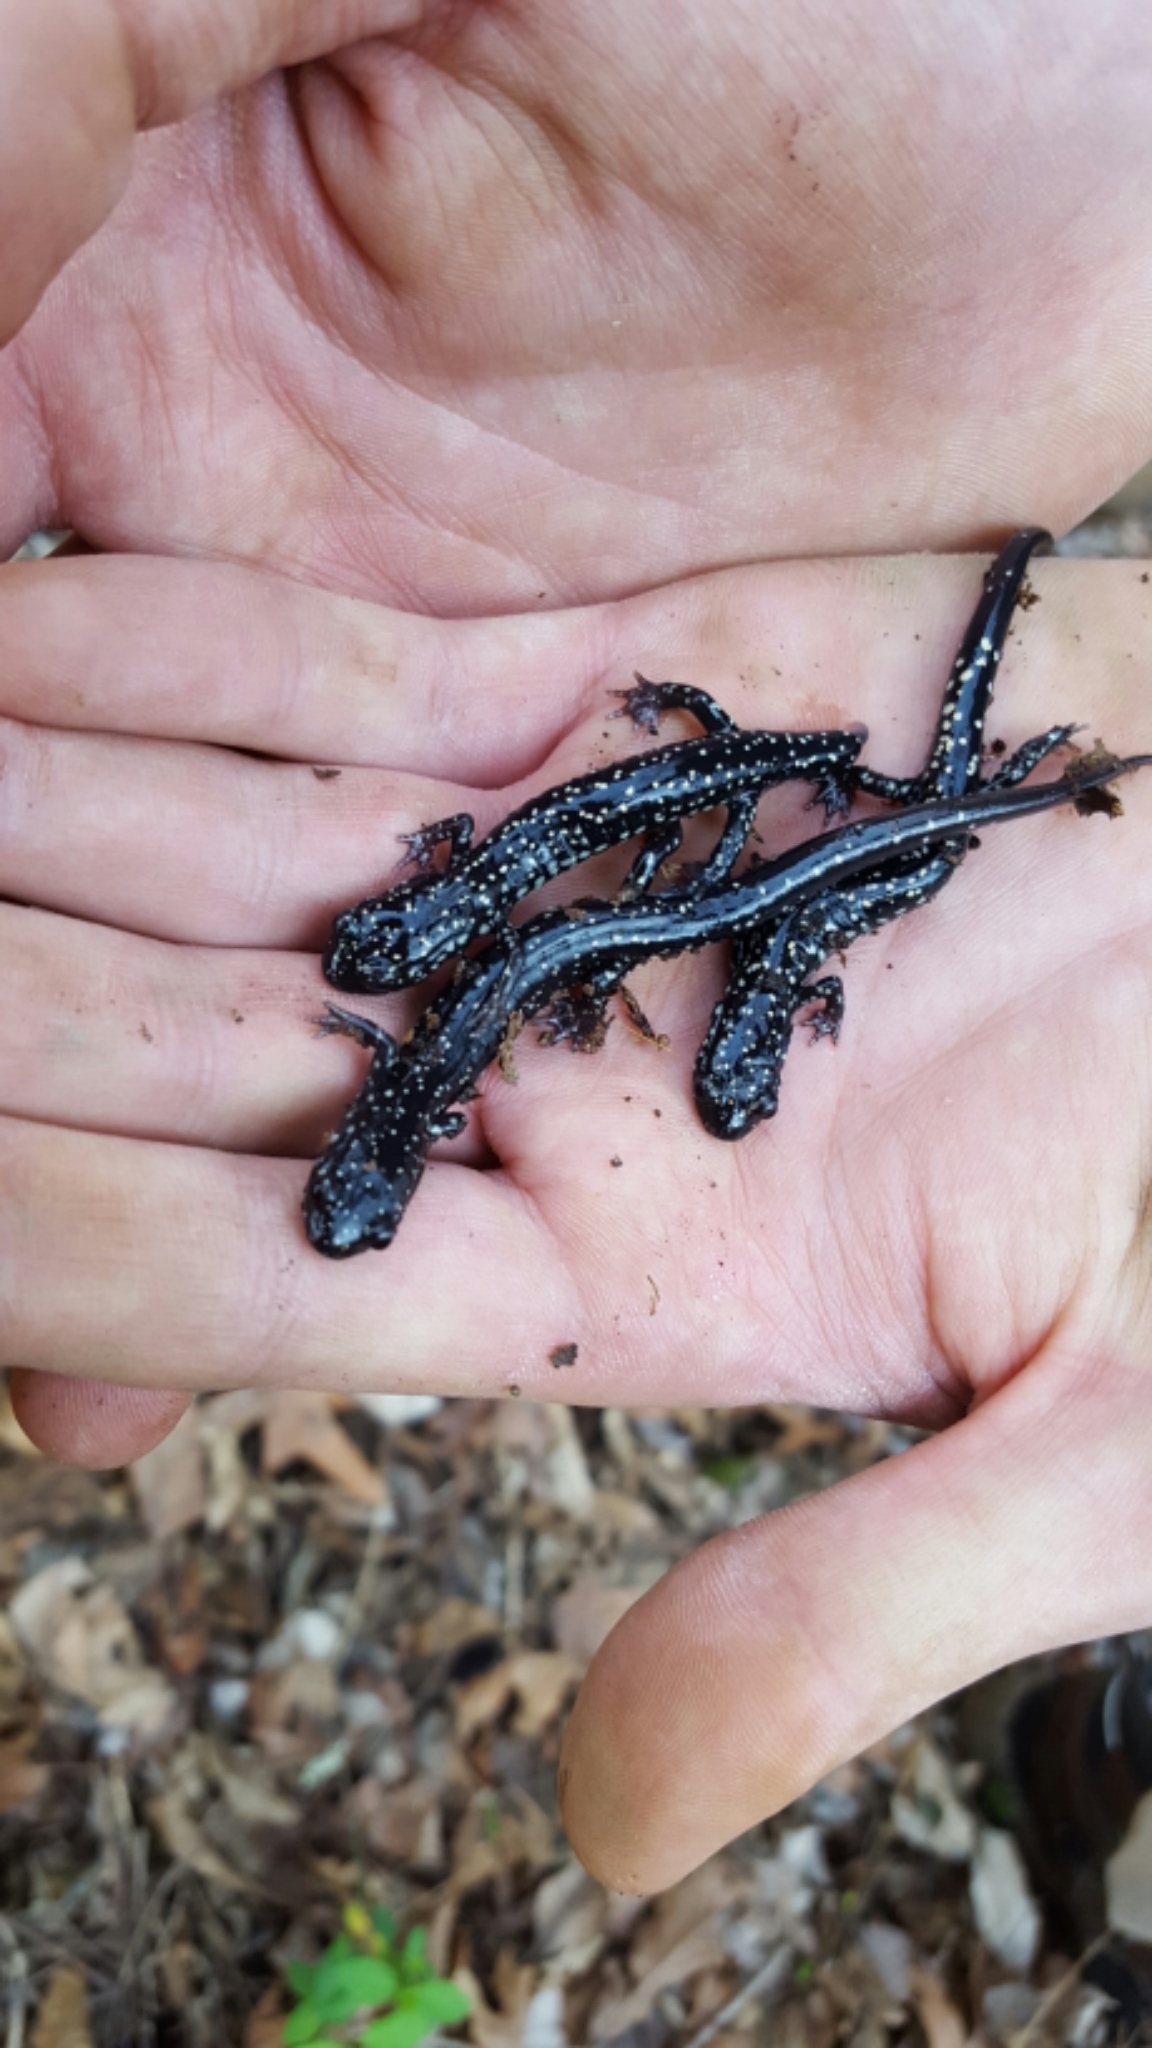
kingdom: Animalia
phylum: Chordata
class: Amphibia
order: Caudata
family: Plethodontidae
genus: Plethodon
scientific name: Plethodon albagula
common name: Western slimy salamander
